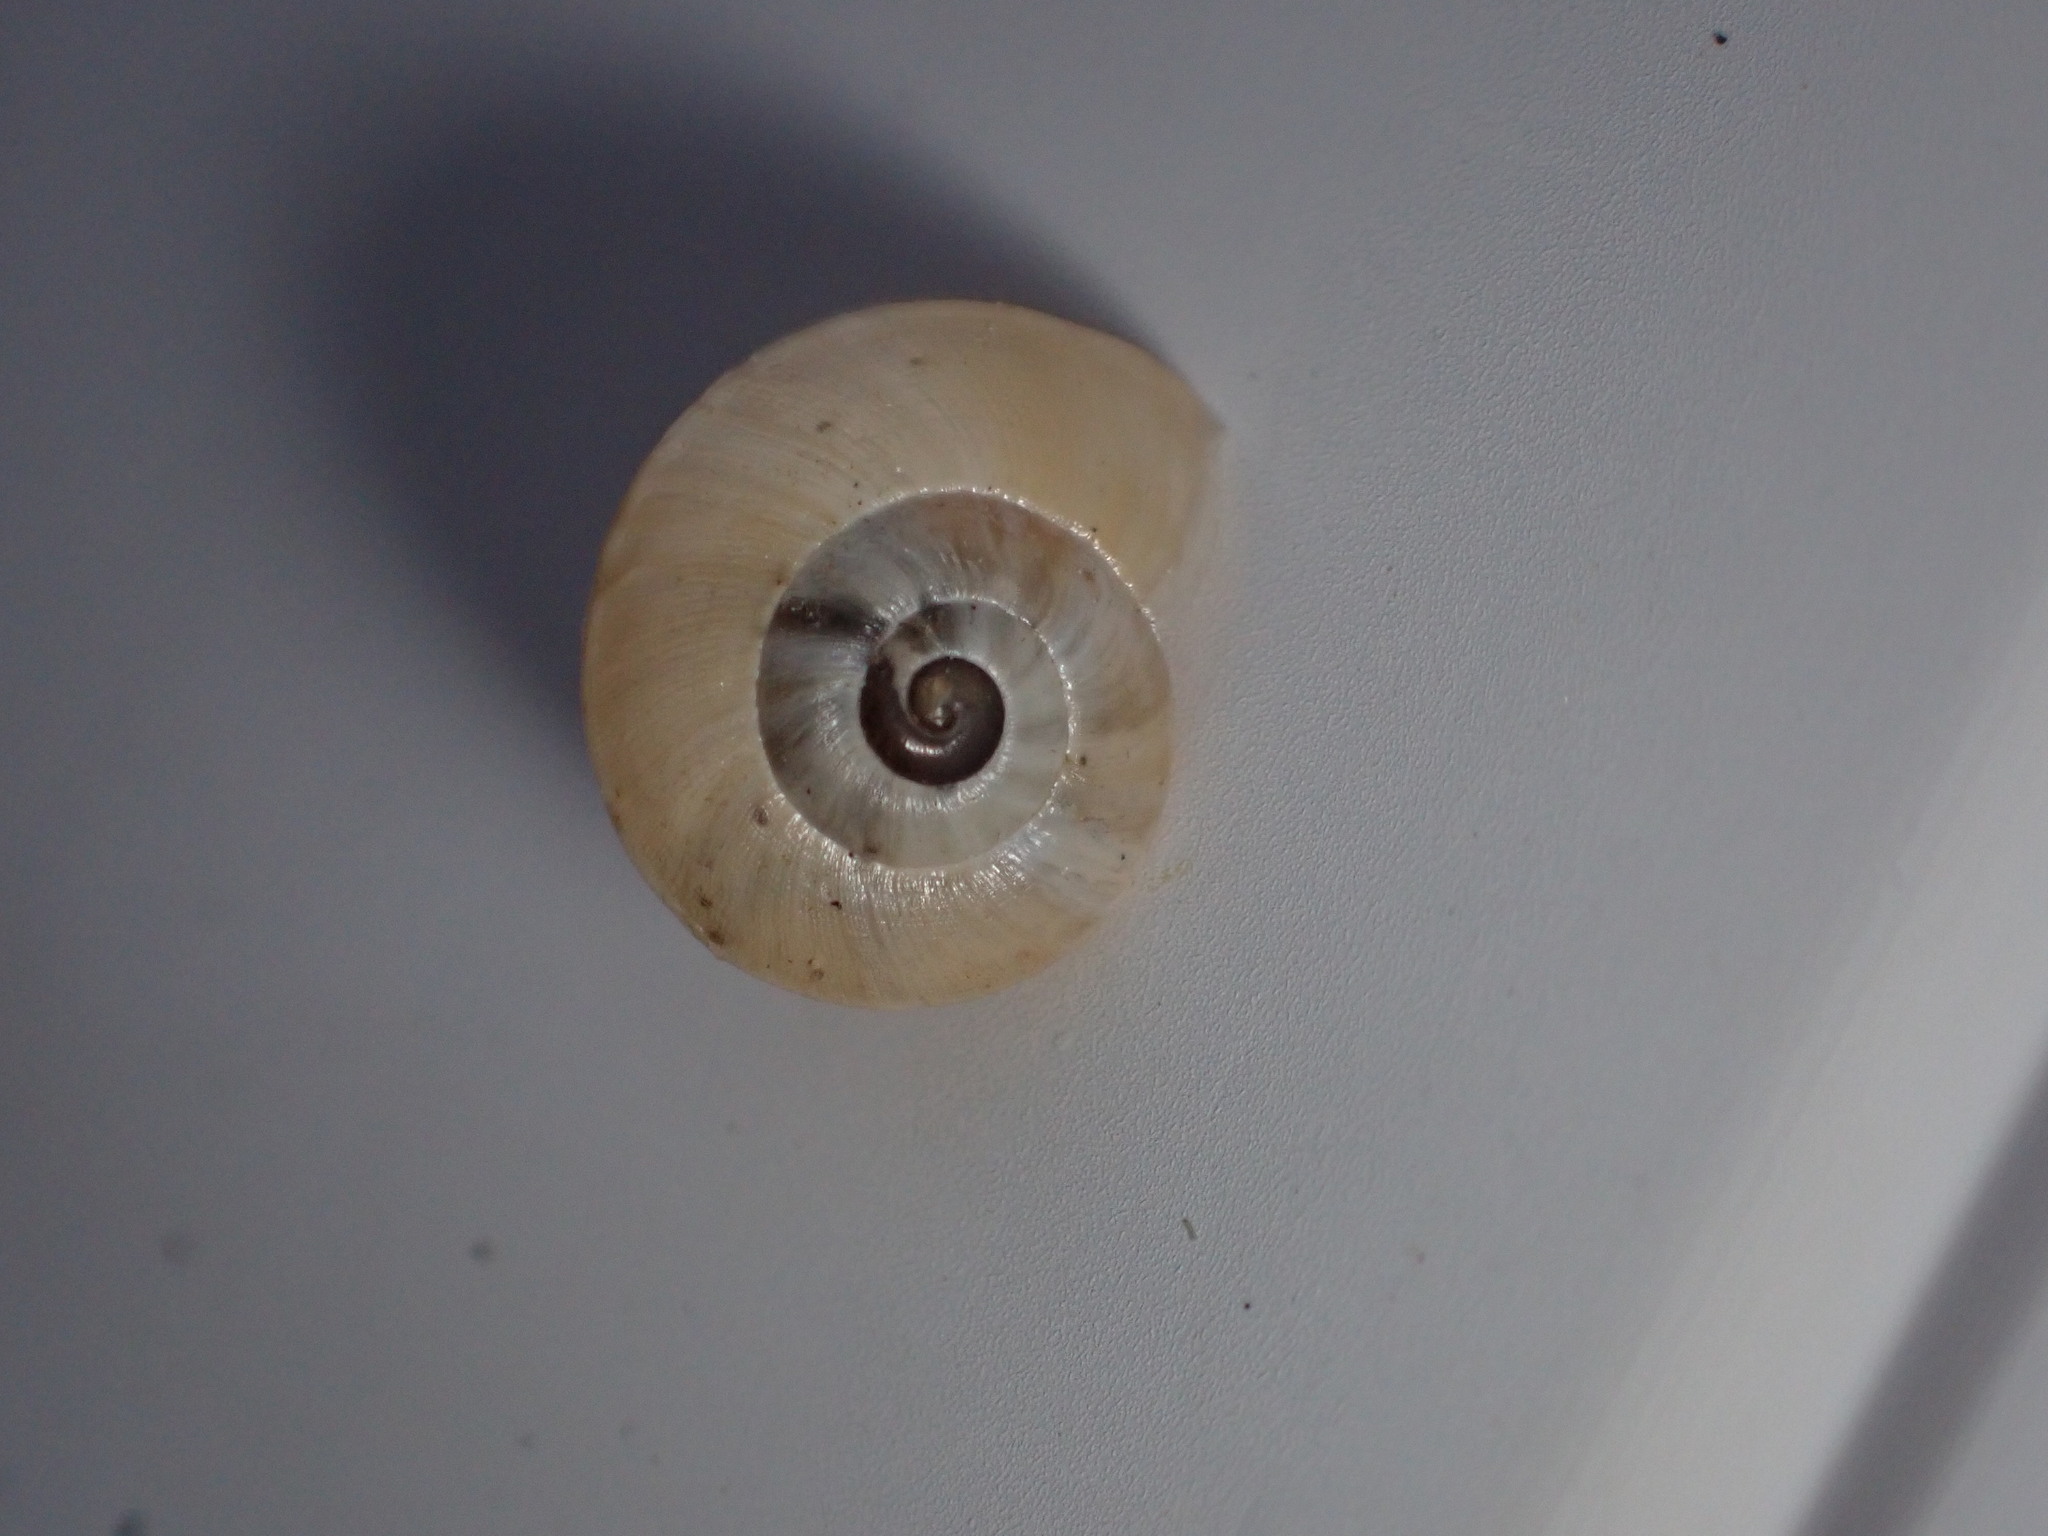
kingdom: Animalia
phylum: Mollusca
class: Gastropoda
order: Stylommatophora
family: Helicidae
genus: Theba
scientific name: Theba pisana
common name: White snail
